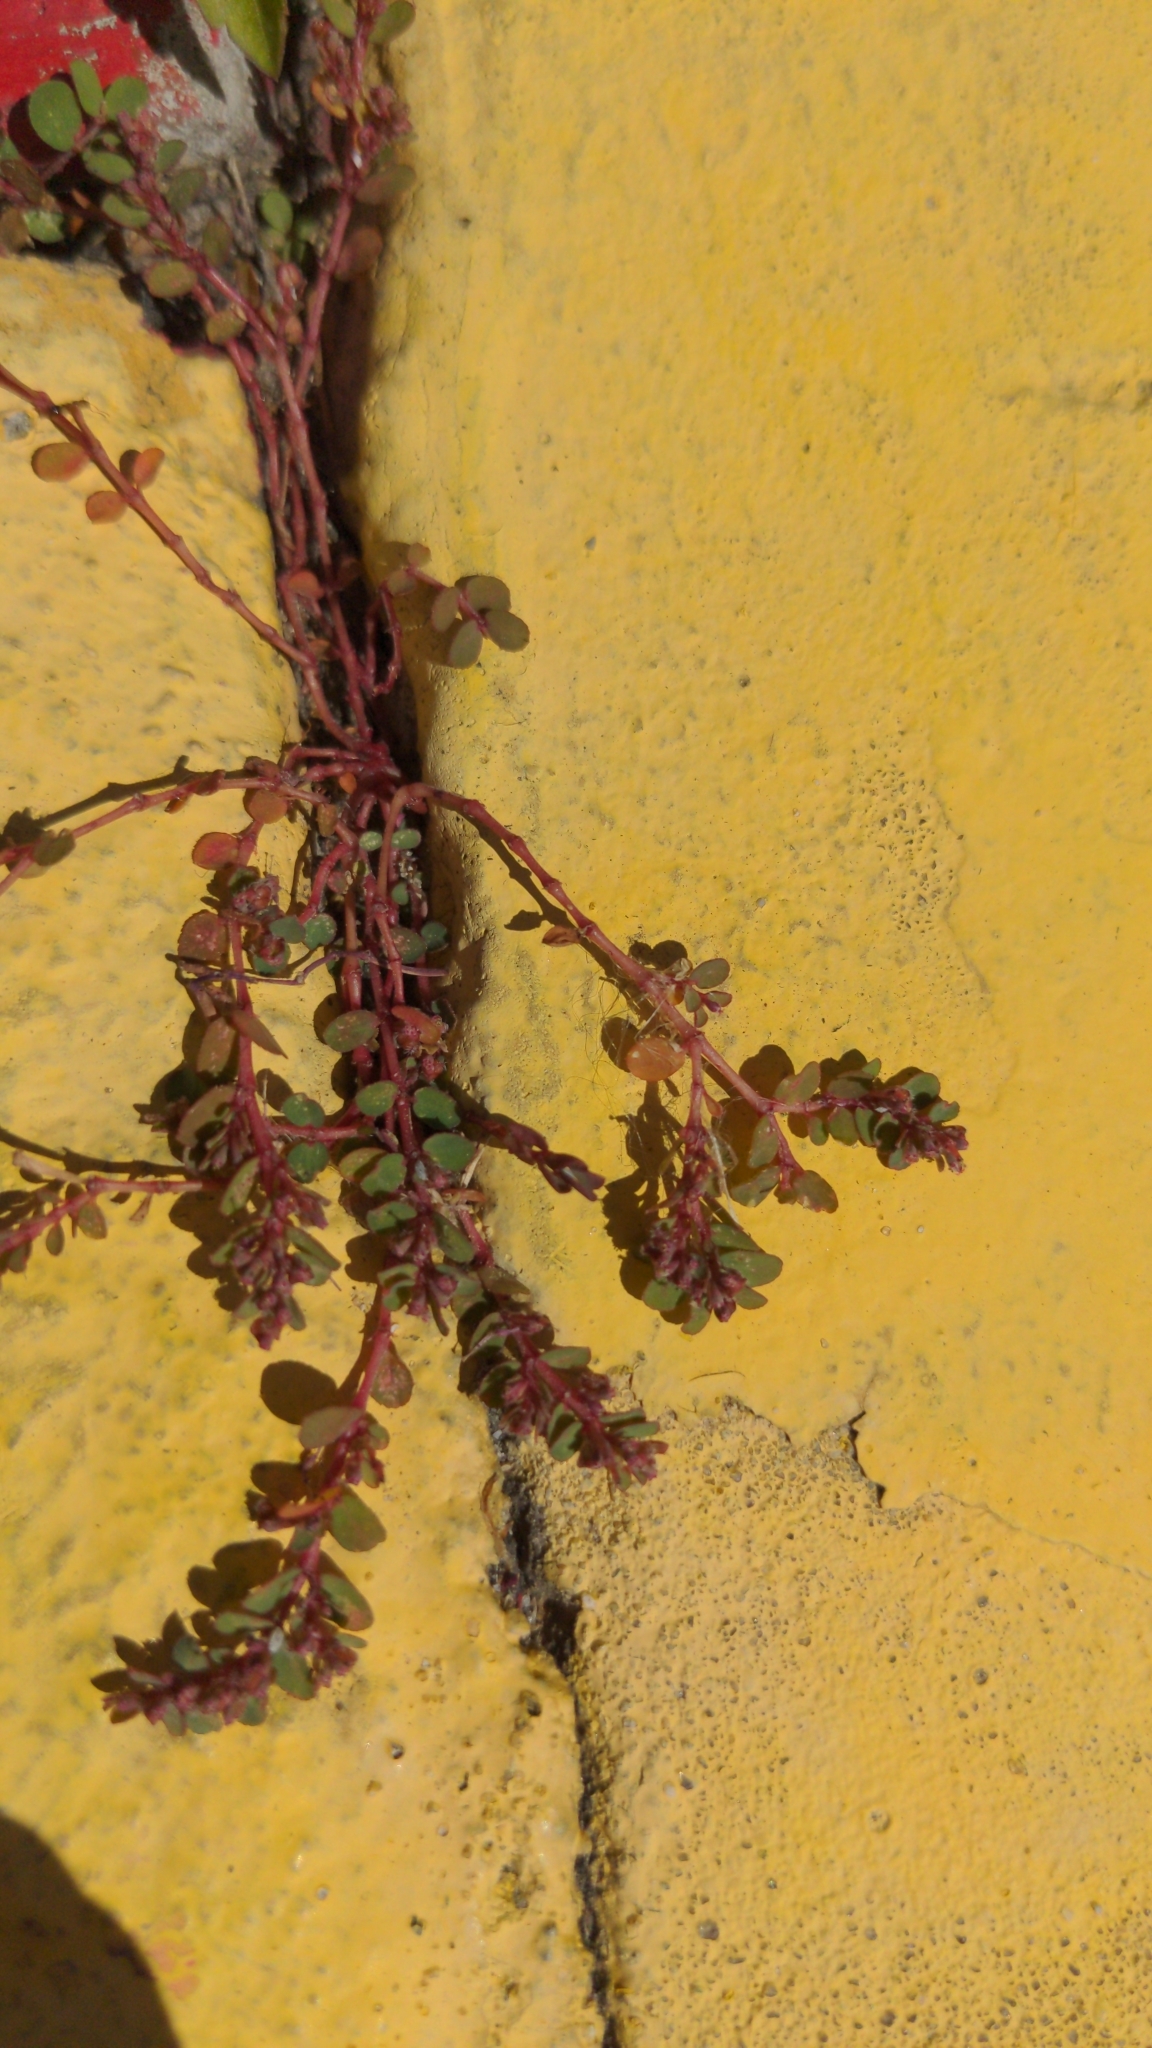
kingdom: Plantae
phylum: Tracheophyta
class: Magnoliopsida
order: Malpighiales
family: Euphorbiaceae
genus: Euphorbia
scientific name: Euphorbia prostrata
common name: Prostrate sandmat
